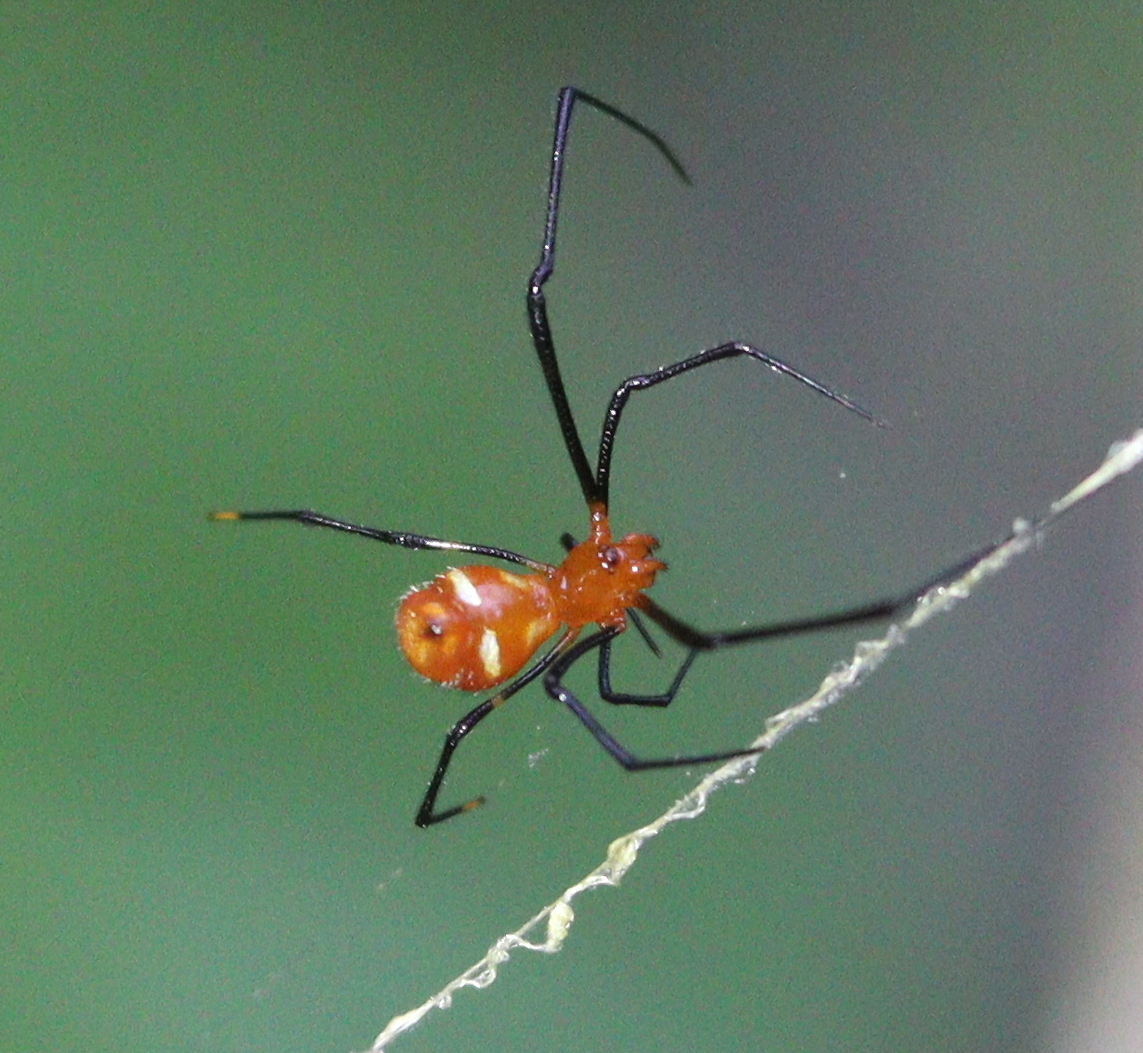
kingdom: Animalia
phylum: Arthropoda
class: Arachnida
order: Araneae
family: Theridiidae
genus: Argyrodes
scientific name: Argyrodes flavescens
